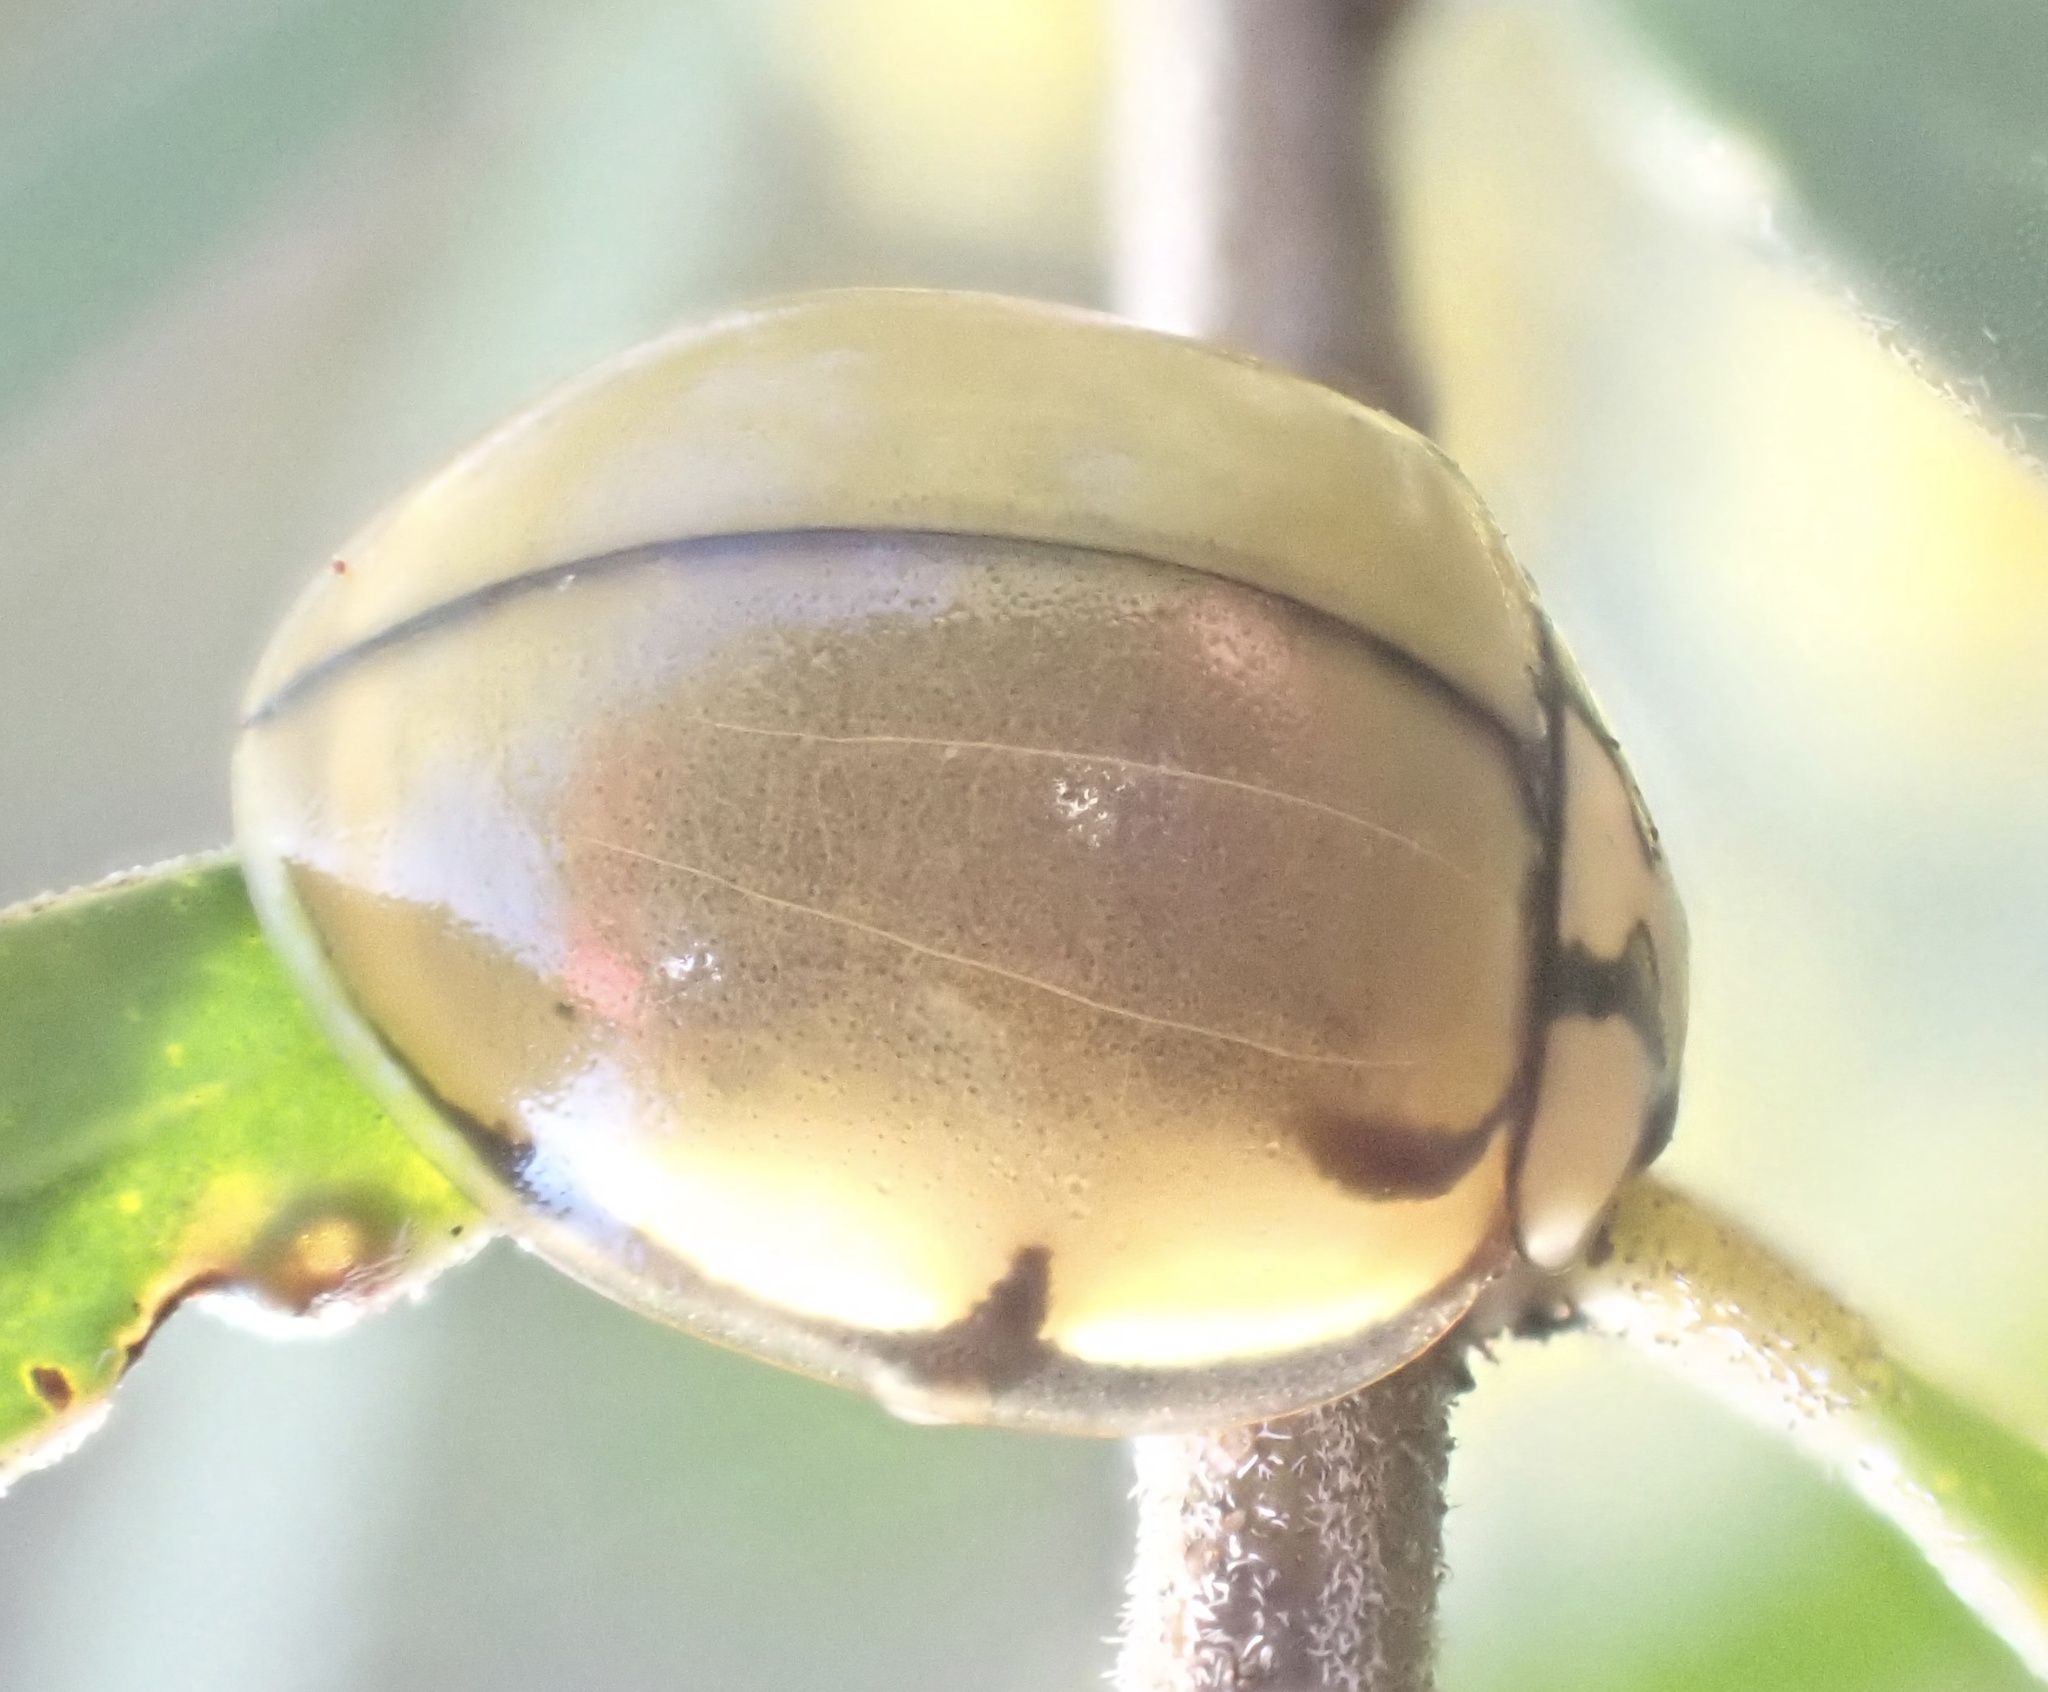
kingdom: Animalia
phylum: Arthropoda
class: Insecta
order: Coleoptera
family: Coccinellidae
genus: Harmonia
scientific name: Harmonia
